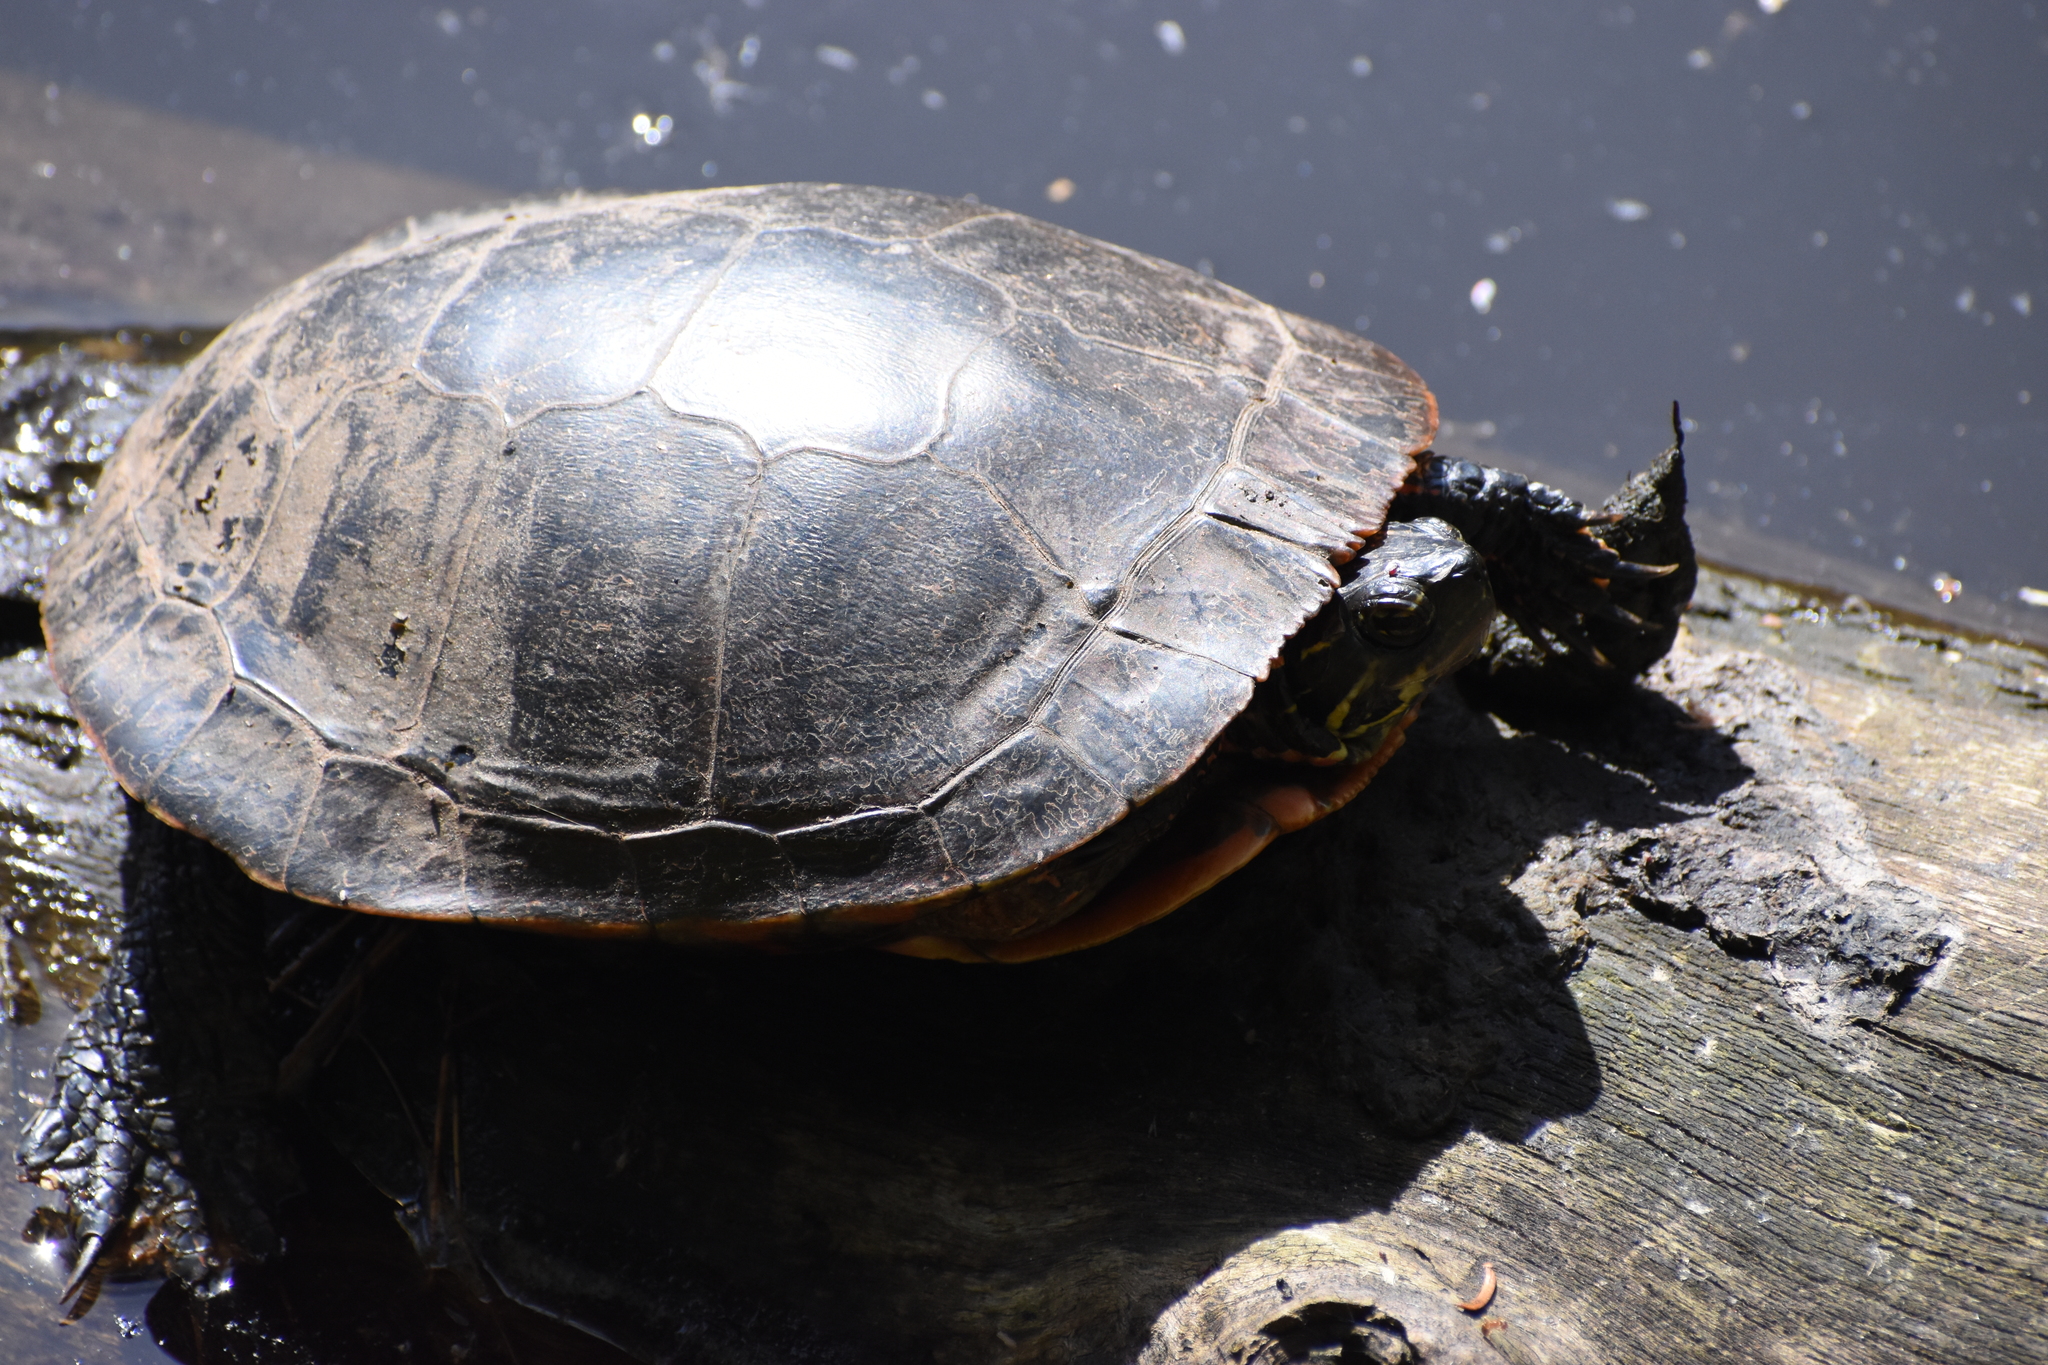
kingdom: Animalia
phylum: Chordata
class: Testudines
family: Emydidae
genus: Chrysemys
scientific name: Chrysemys picta
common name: Painted turtle
